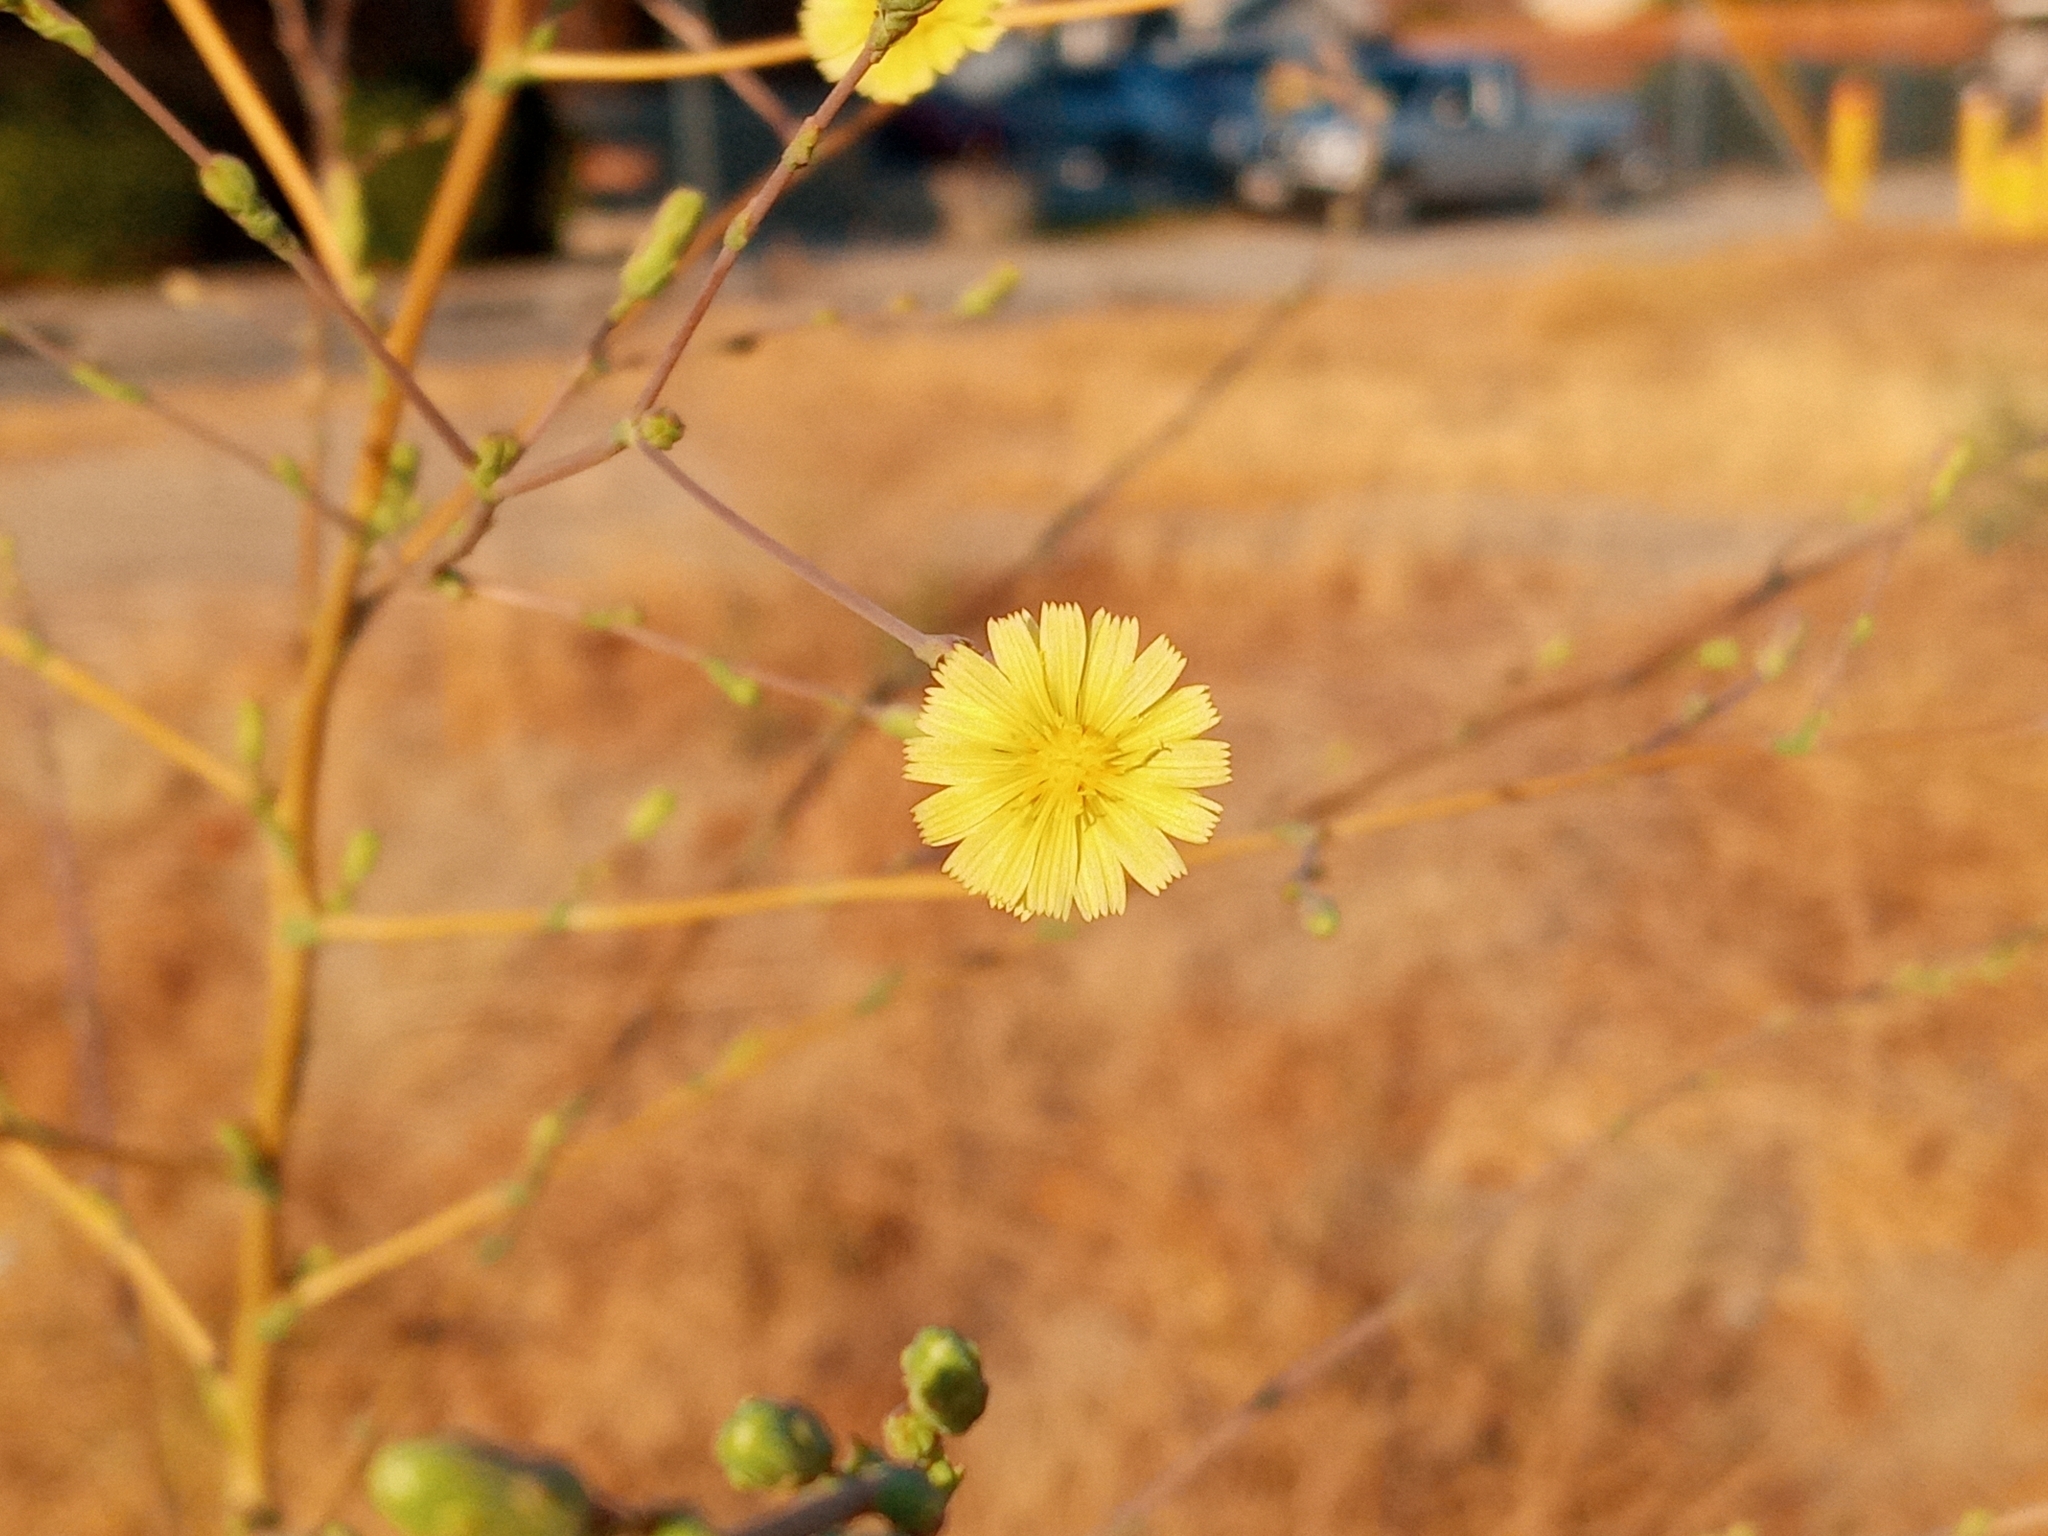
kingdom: Plantae
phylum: Tracheophyta
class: Magnoliopsida
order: Asterales
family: Asteraceae
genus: Lactuca
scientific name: Lactuca serriola
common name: Prickly lettuce
